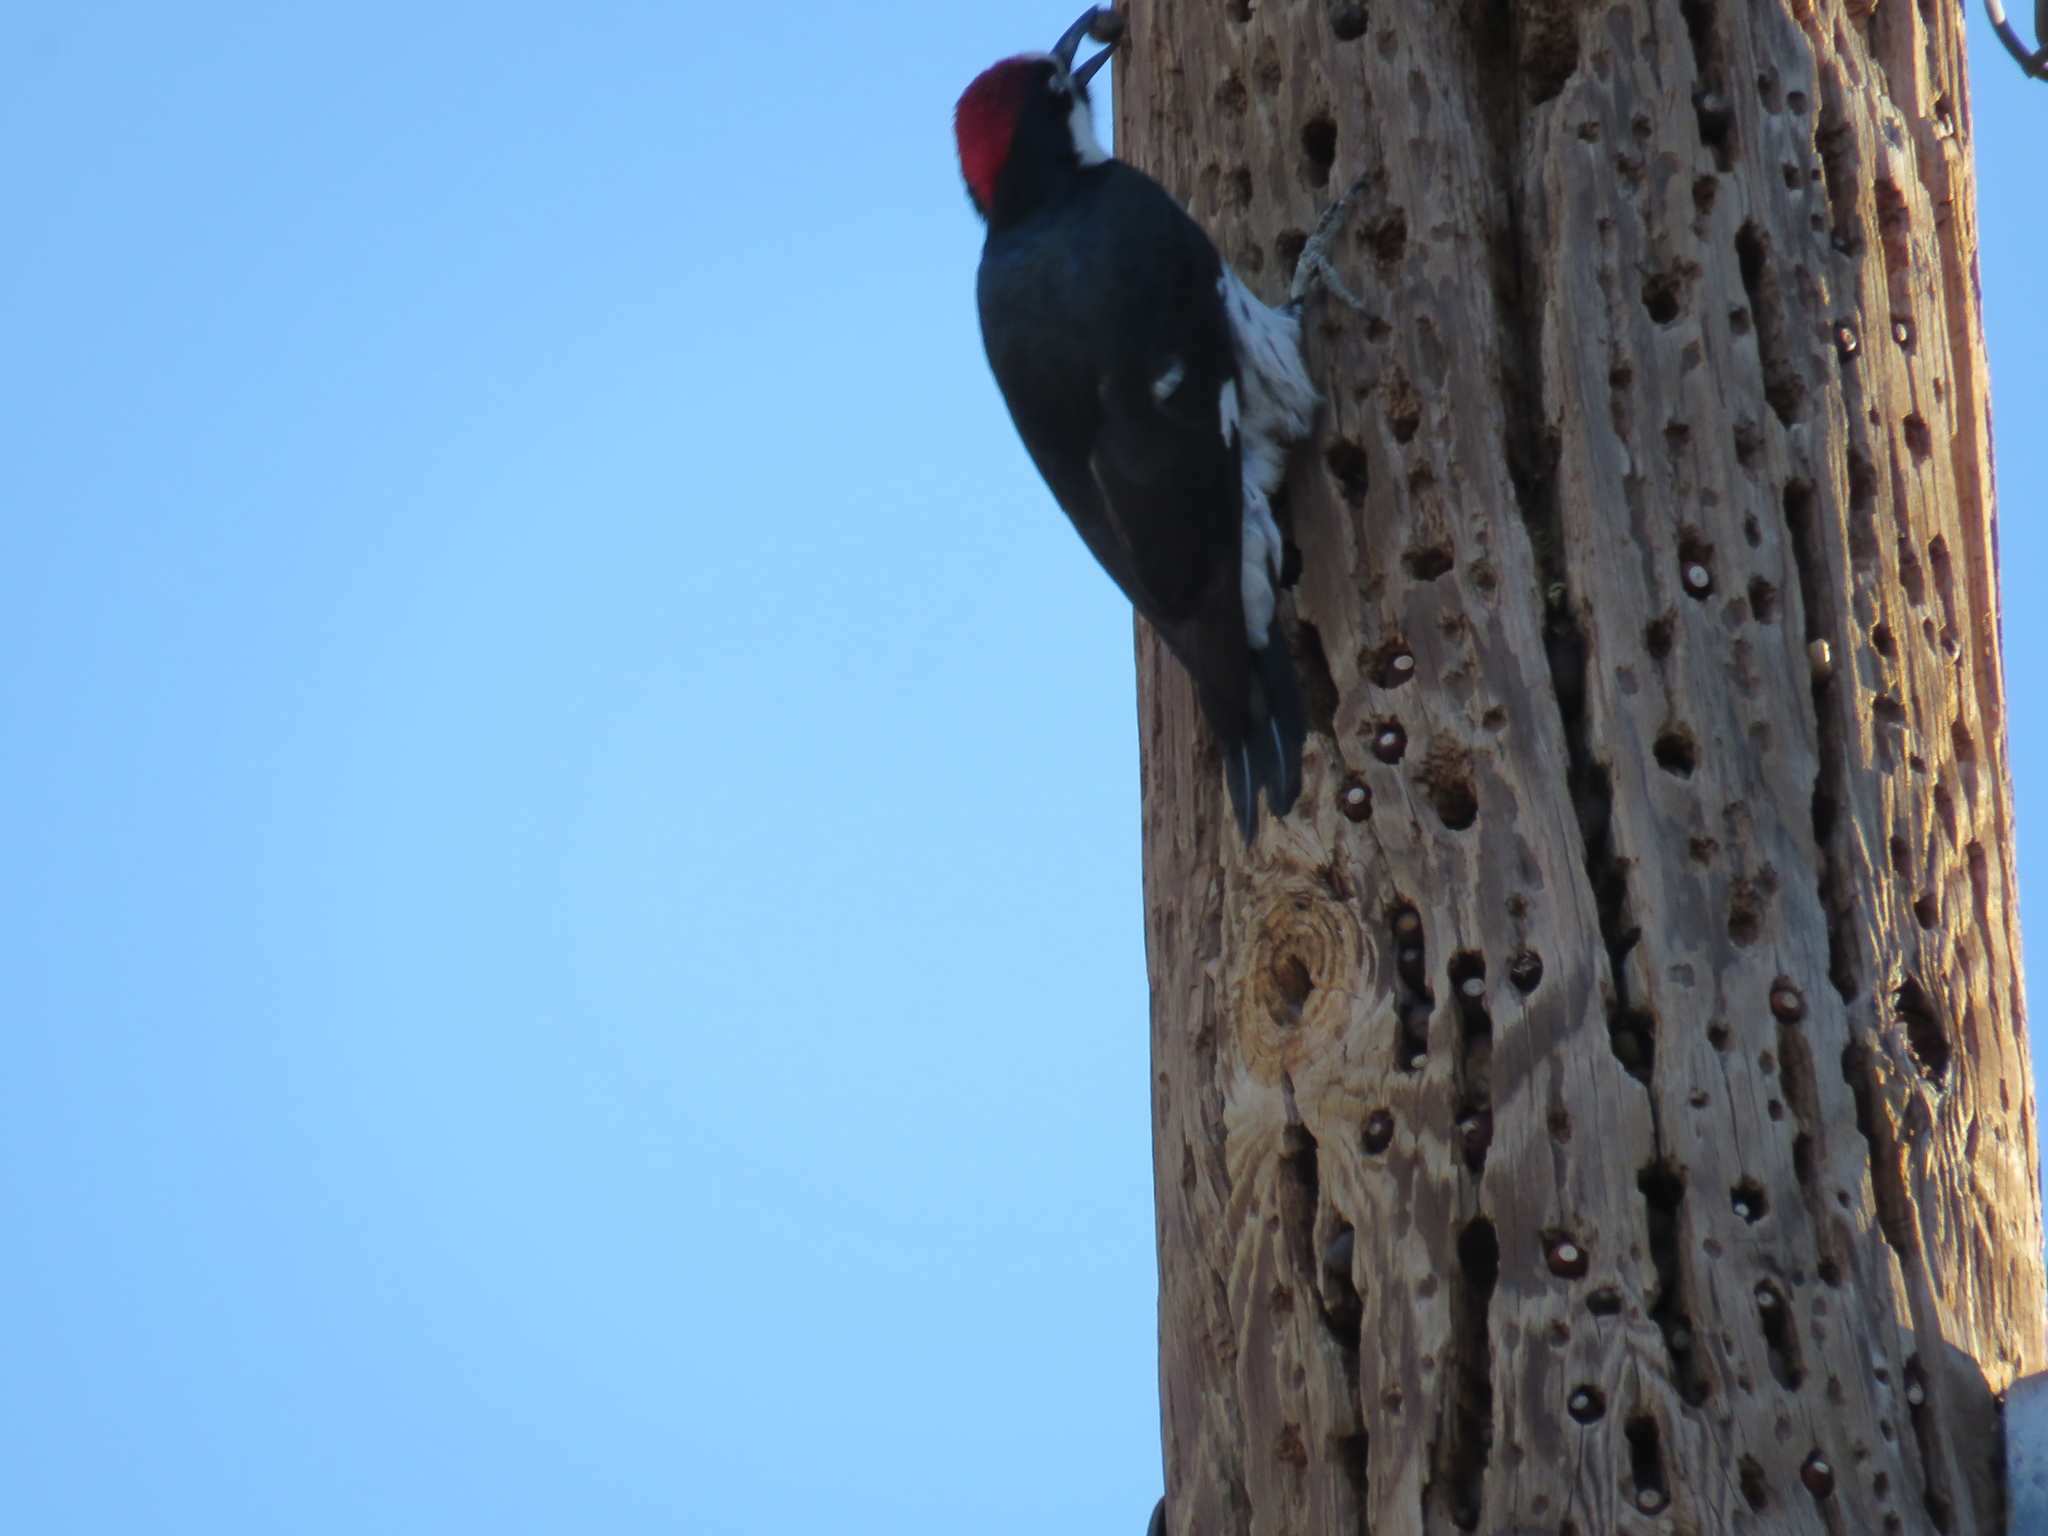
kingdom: Animalia
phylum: Chordata
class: Aves
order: Piciformes
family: Picidae
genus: Melanerpes
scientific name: Melanerpes formicivorus
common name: Acorn woodpecker
